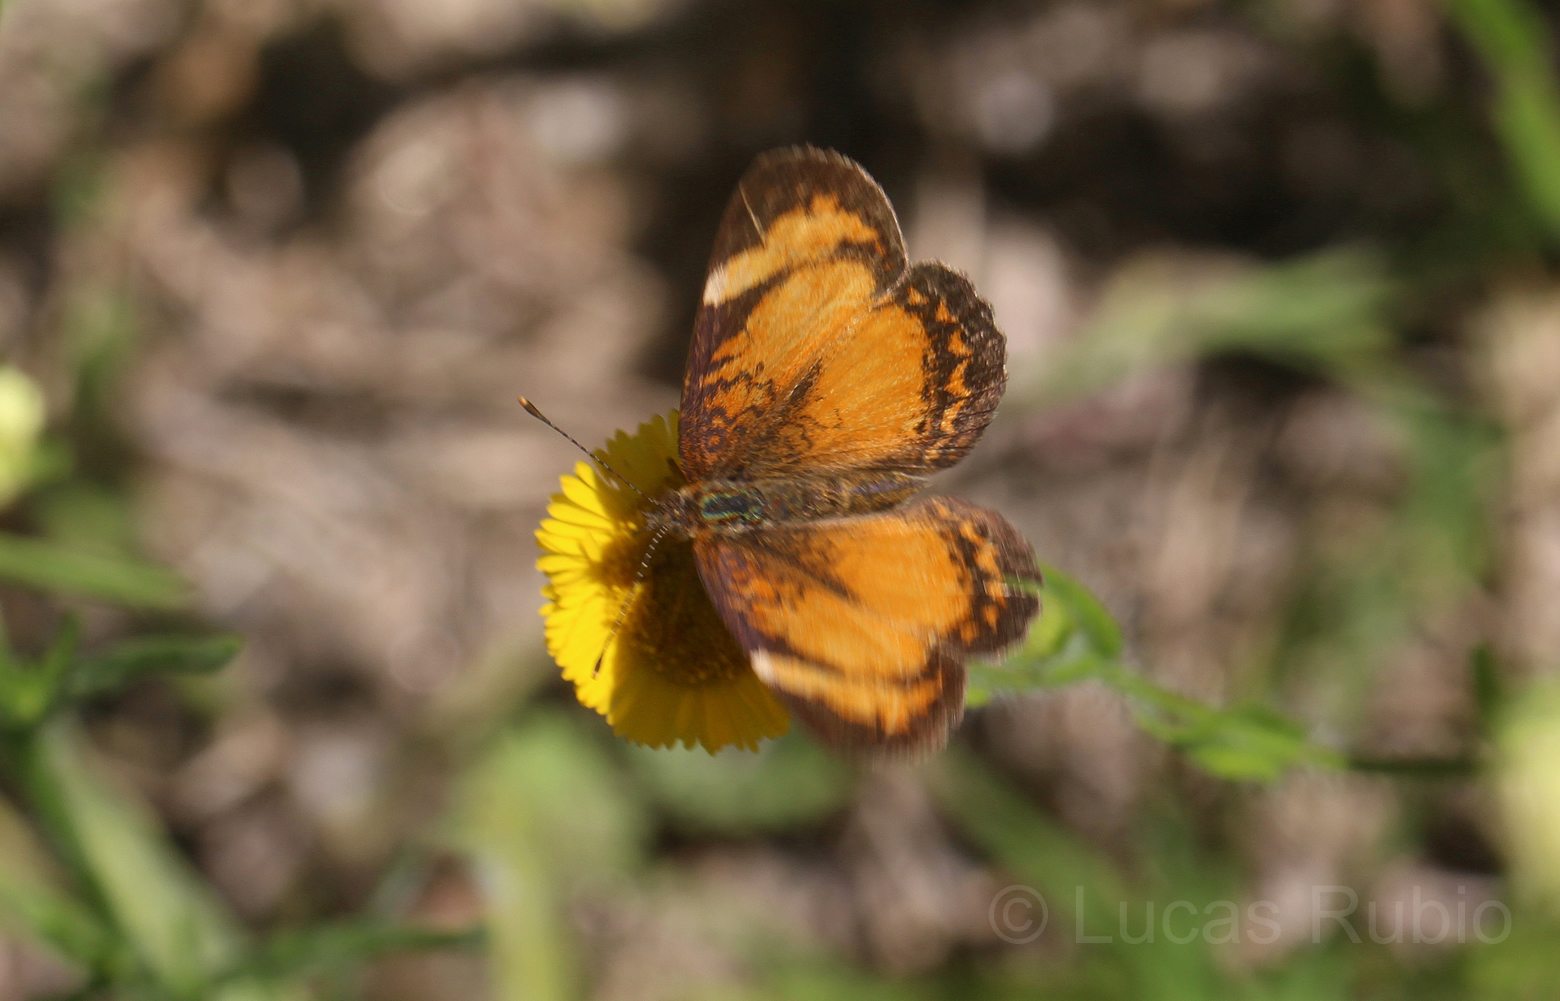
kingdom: Animalia
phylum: Arthropoda
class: Insecta
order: Lepidoptera
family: Nymphalidae
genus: Ortilia
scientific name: Ortilia gentina
